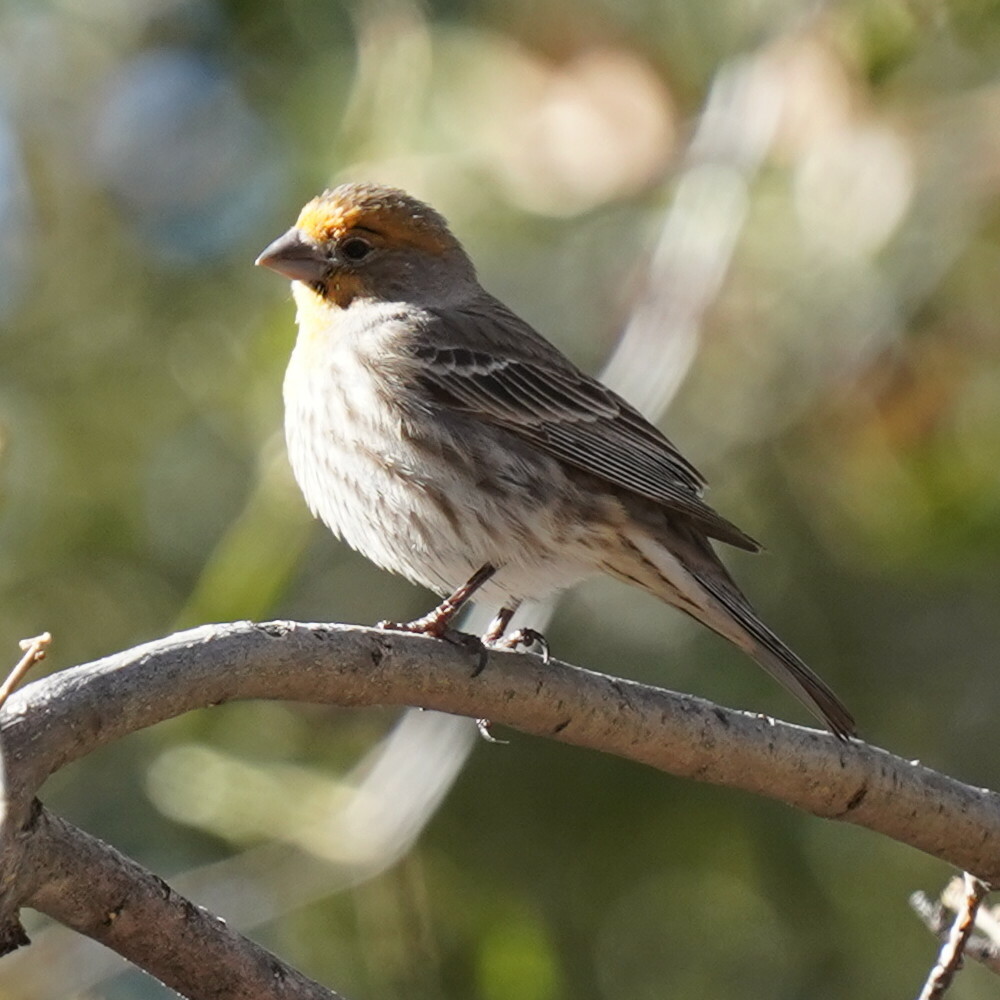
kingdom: Animalia
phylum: Chordata
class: Aves
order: Passeriformes
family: Fringillidae
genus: Haemorhous
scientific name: Haemorhous mexicanus
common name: House finch
